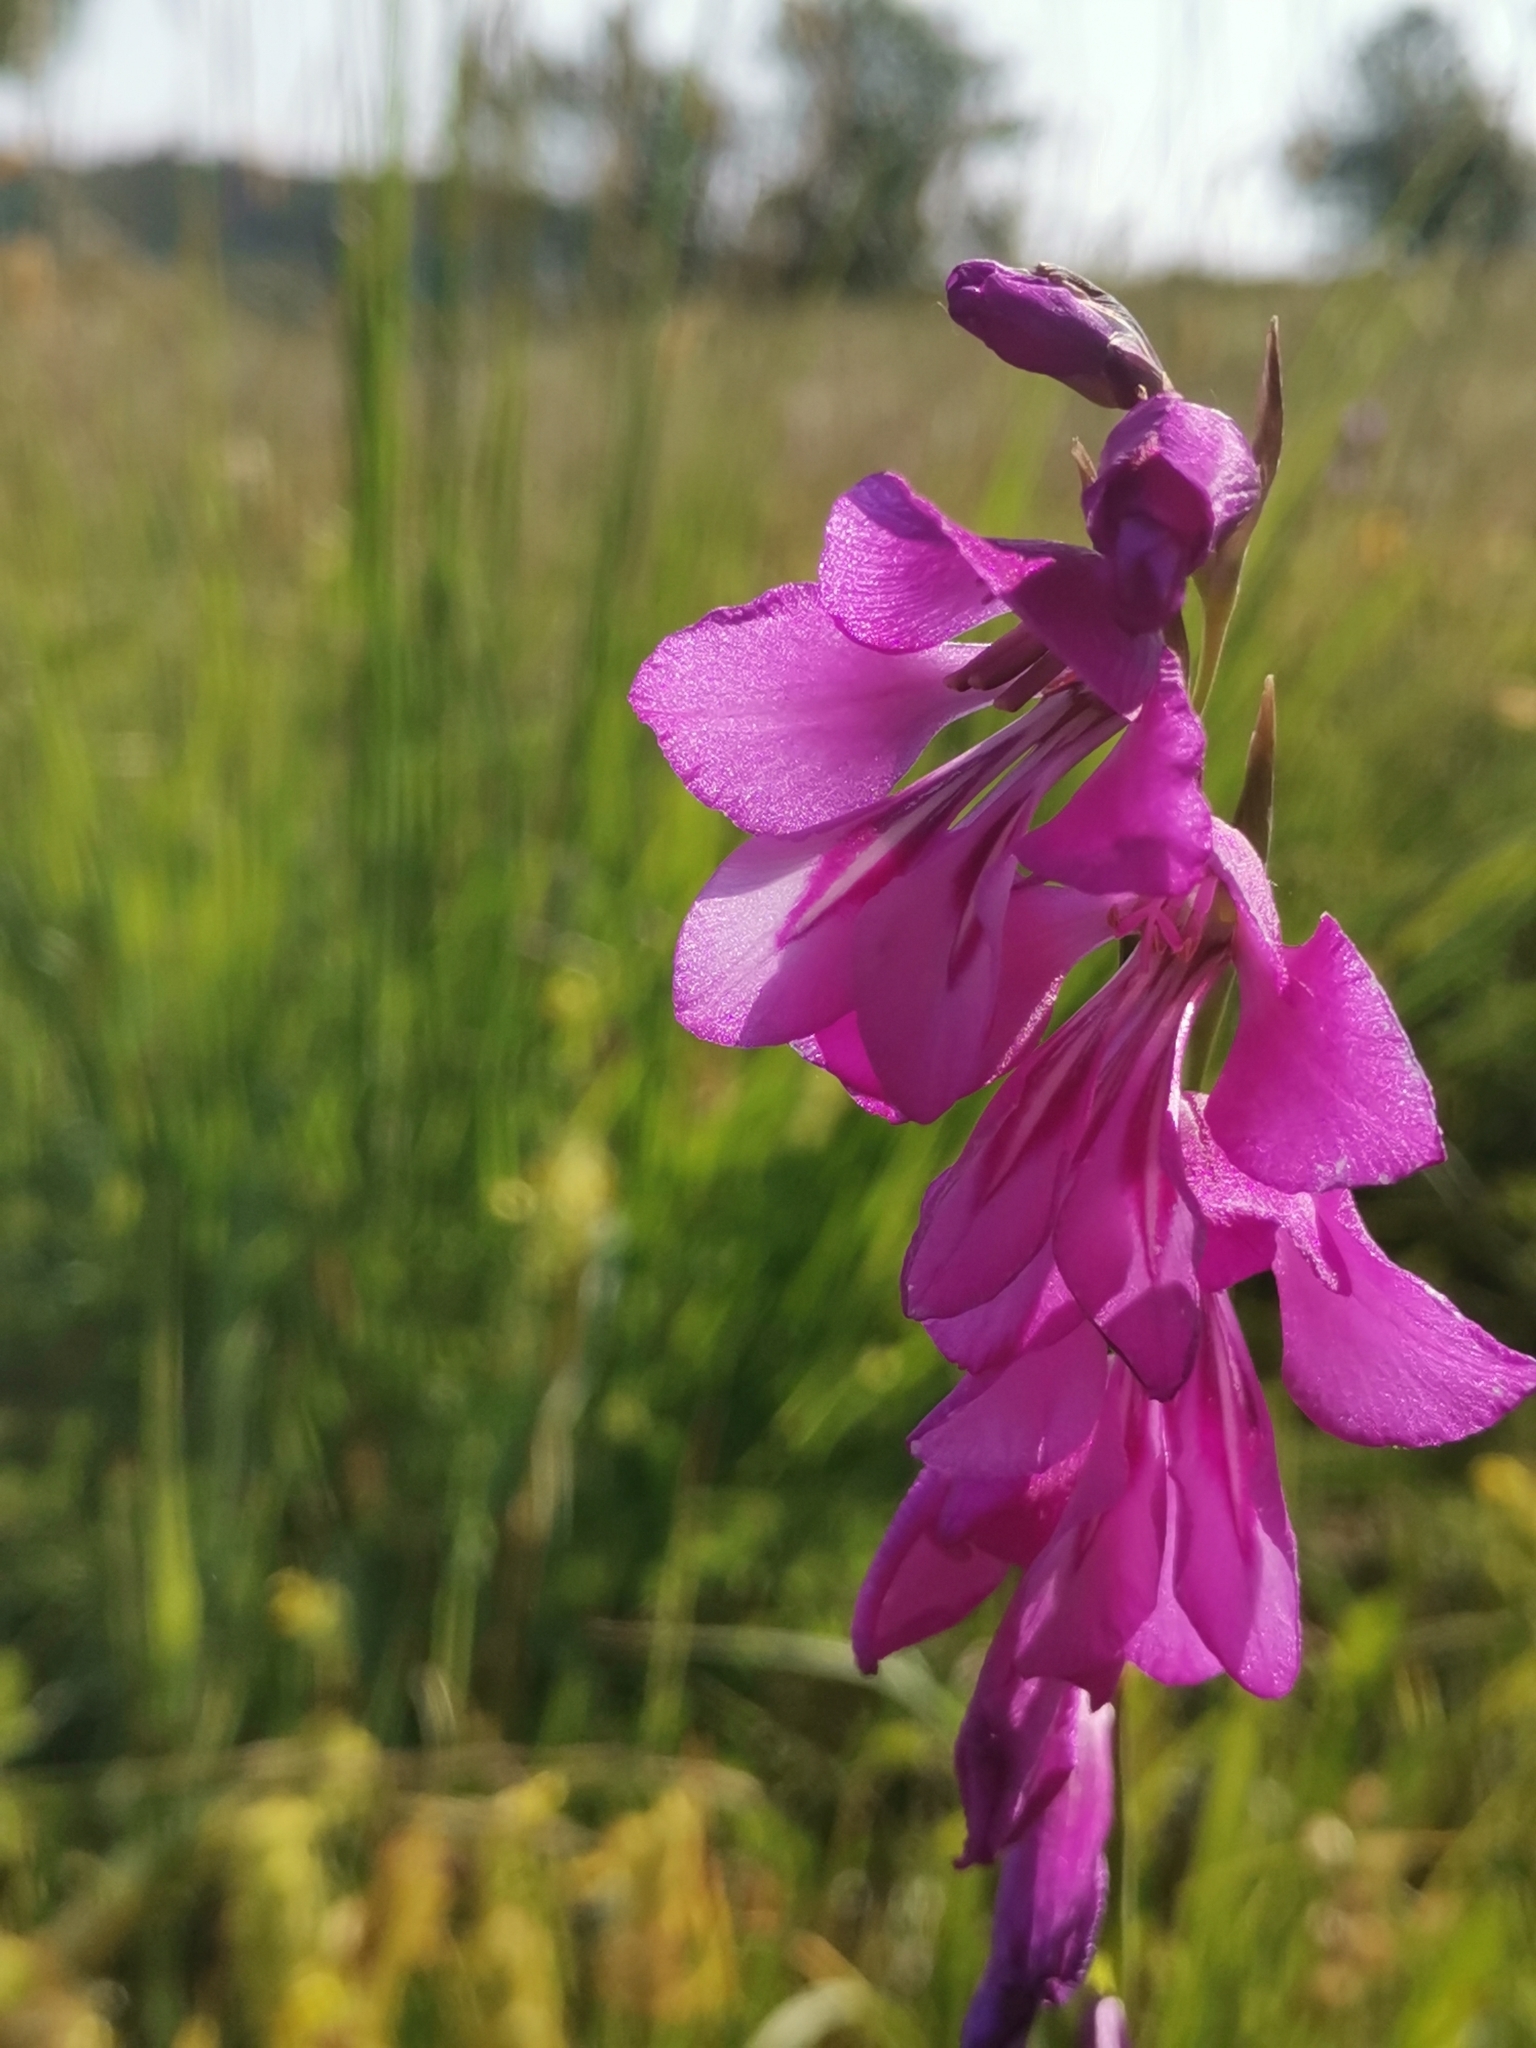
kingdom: Plantae
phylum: Tracheophyta
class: Liliopsida
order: Asparagales
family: Iridaceae
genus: Gladiolus
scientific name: Gladiolus palustris
